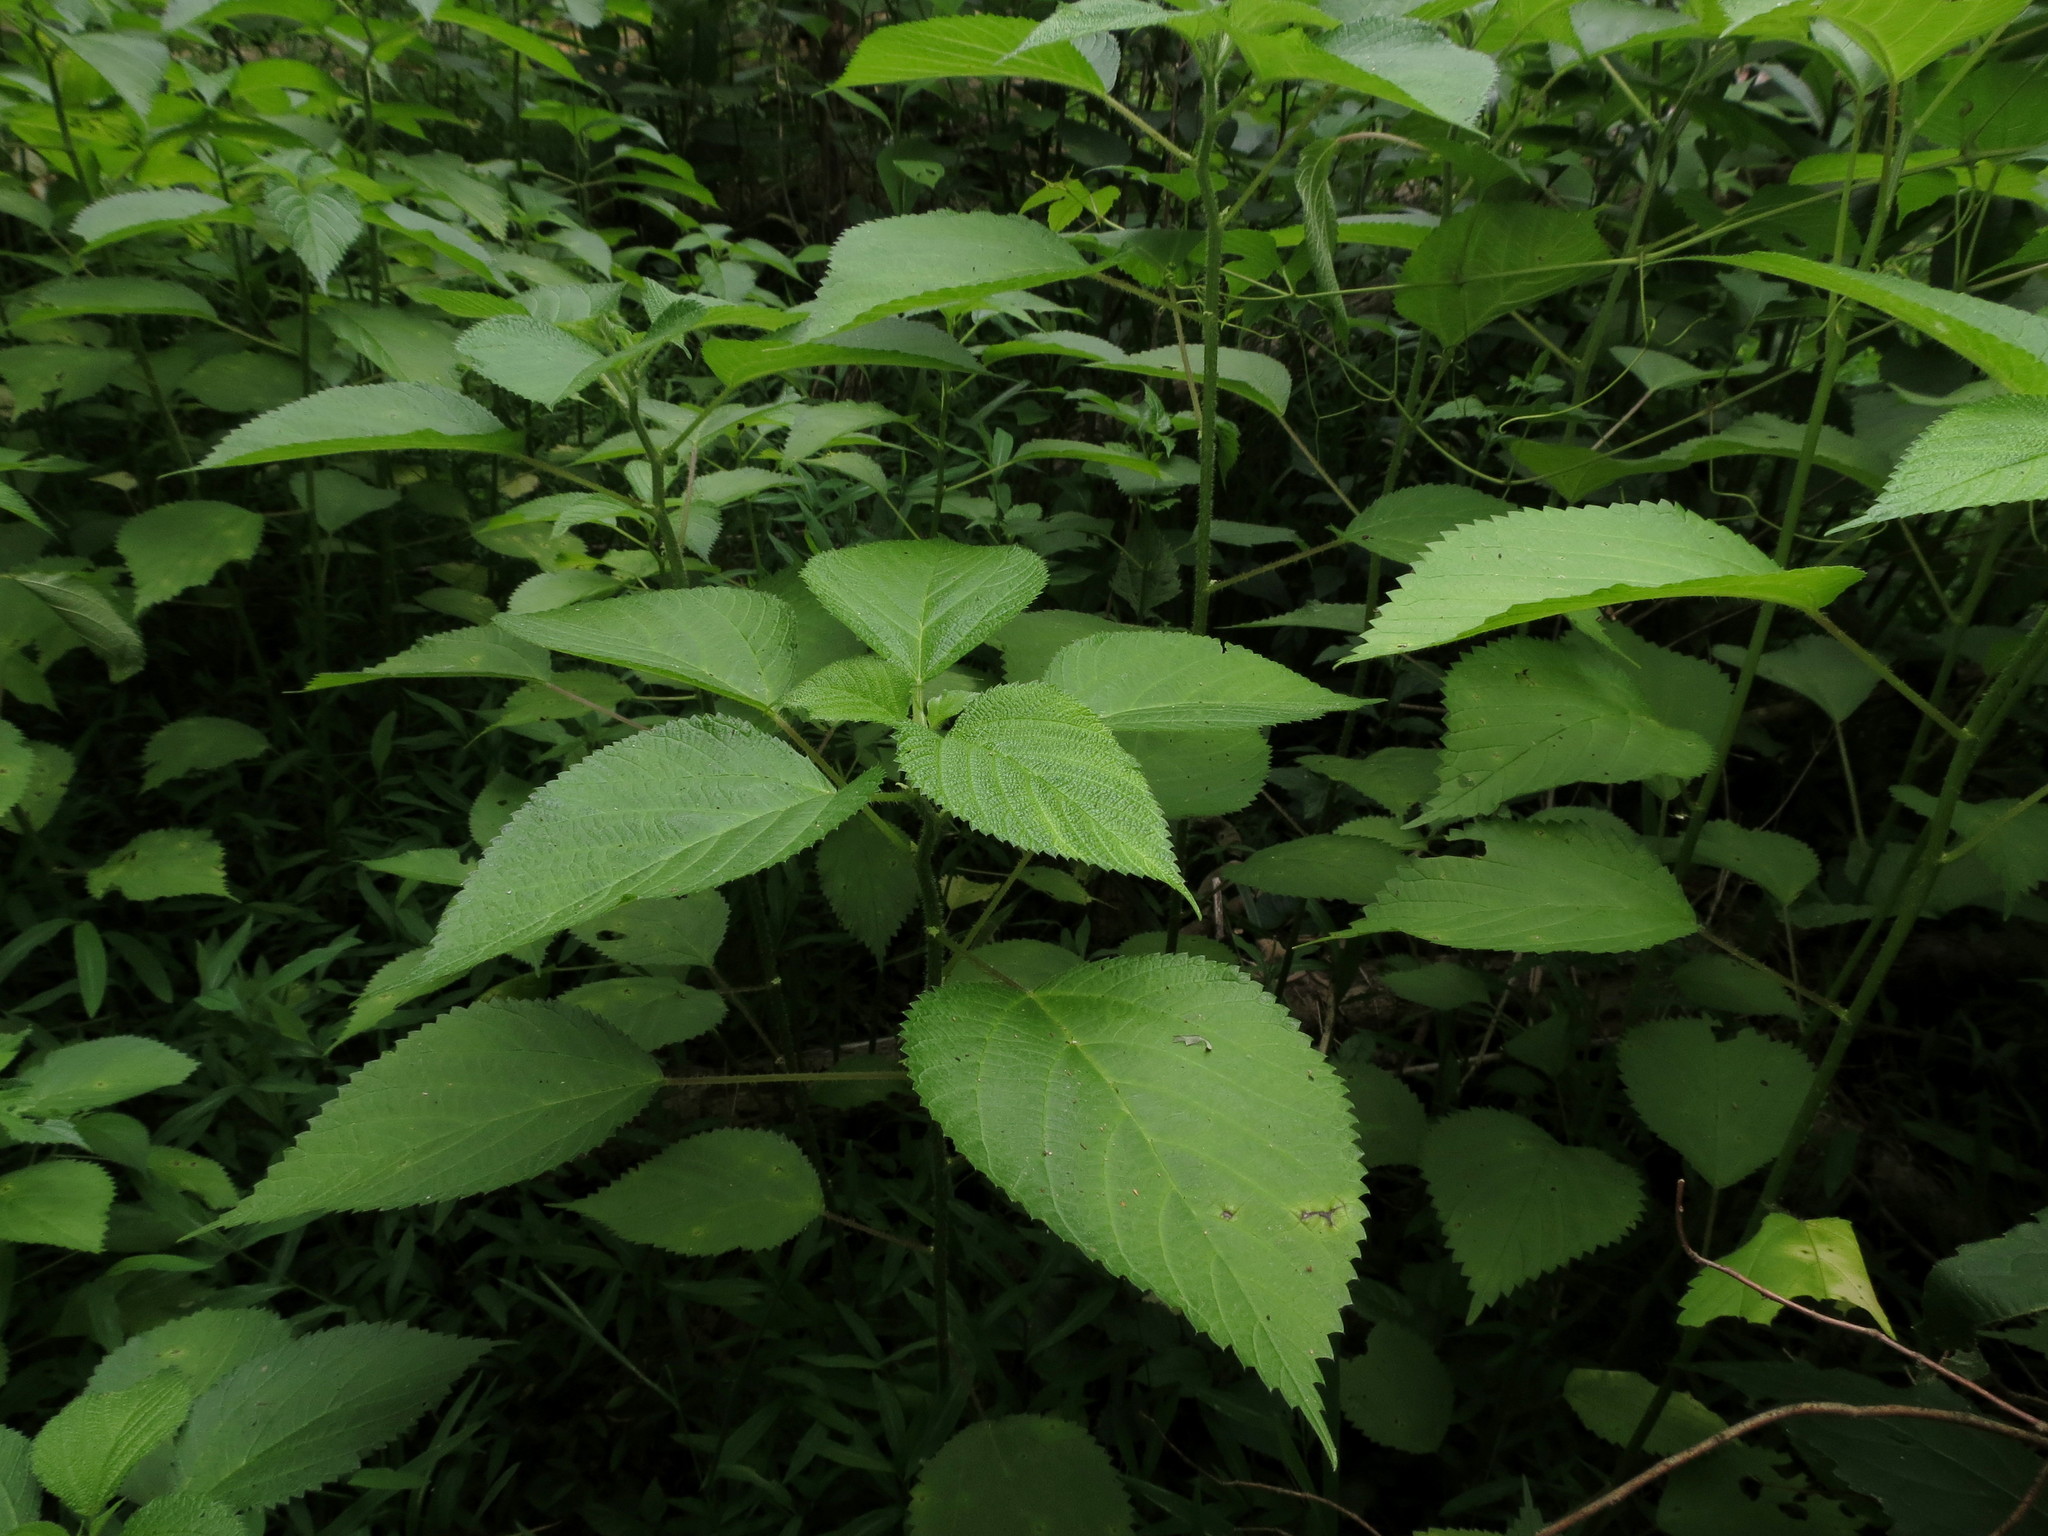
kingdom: Plantae
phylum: Tracheophyta
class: Magnoliopsida
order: Rosales
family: Urticaceae
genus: Laportea
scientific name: Laportea canadensis
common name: Canada nettle
